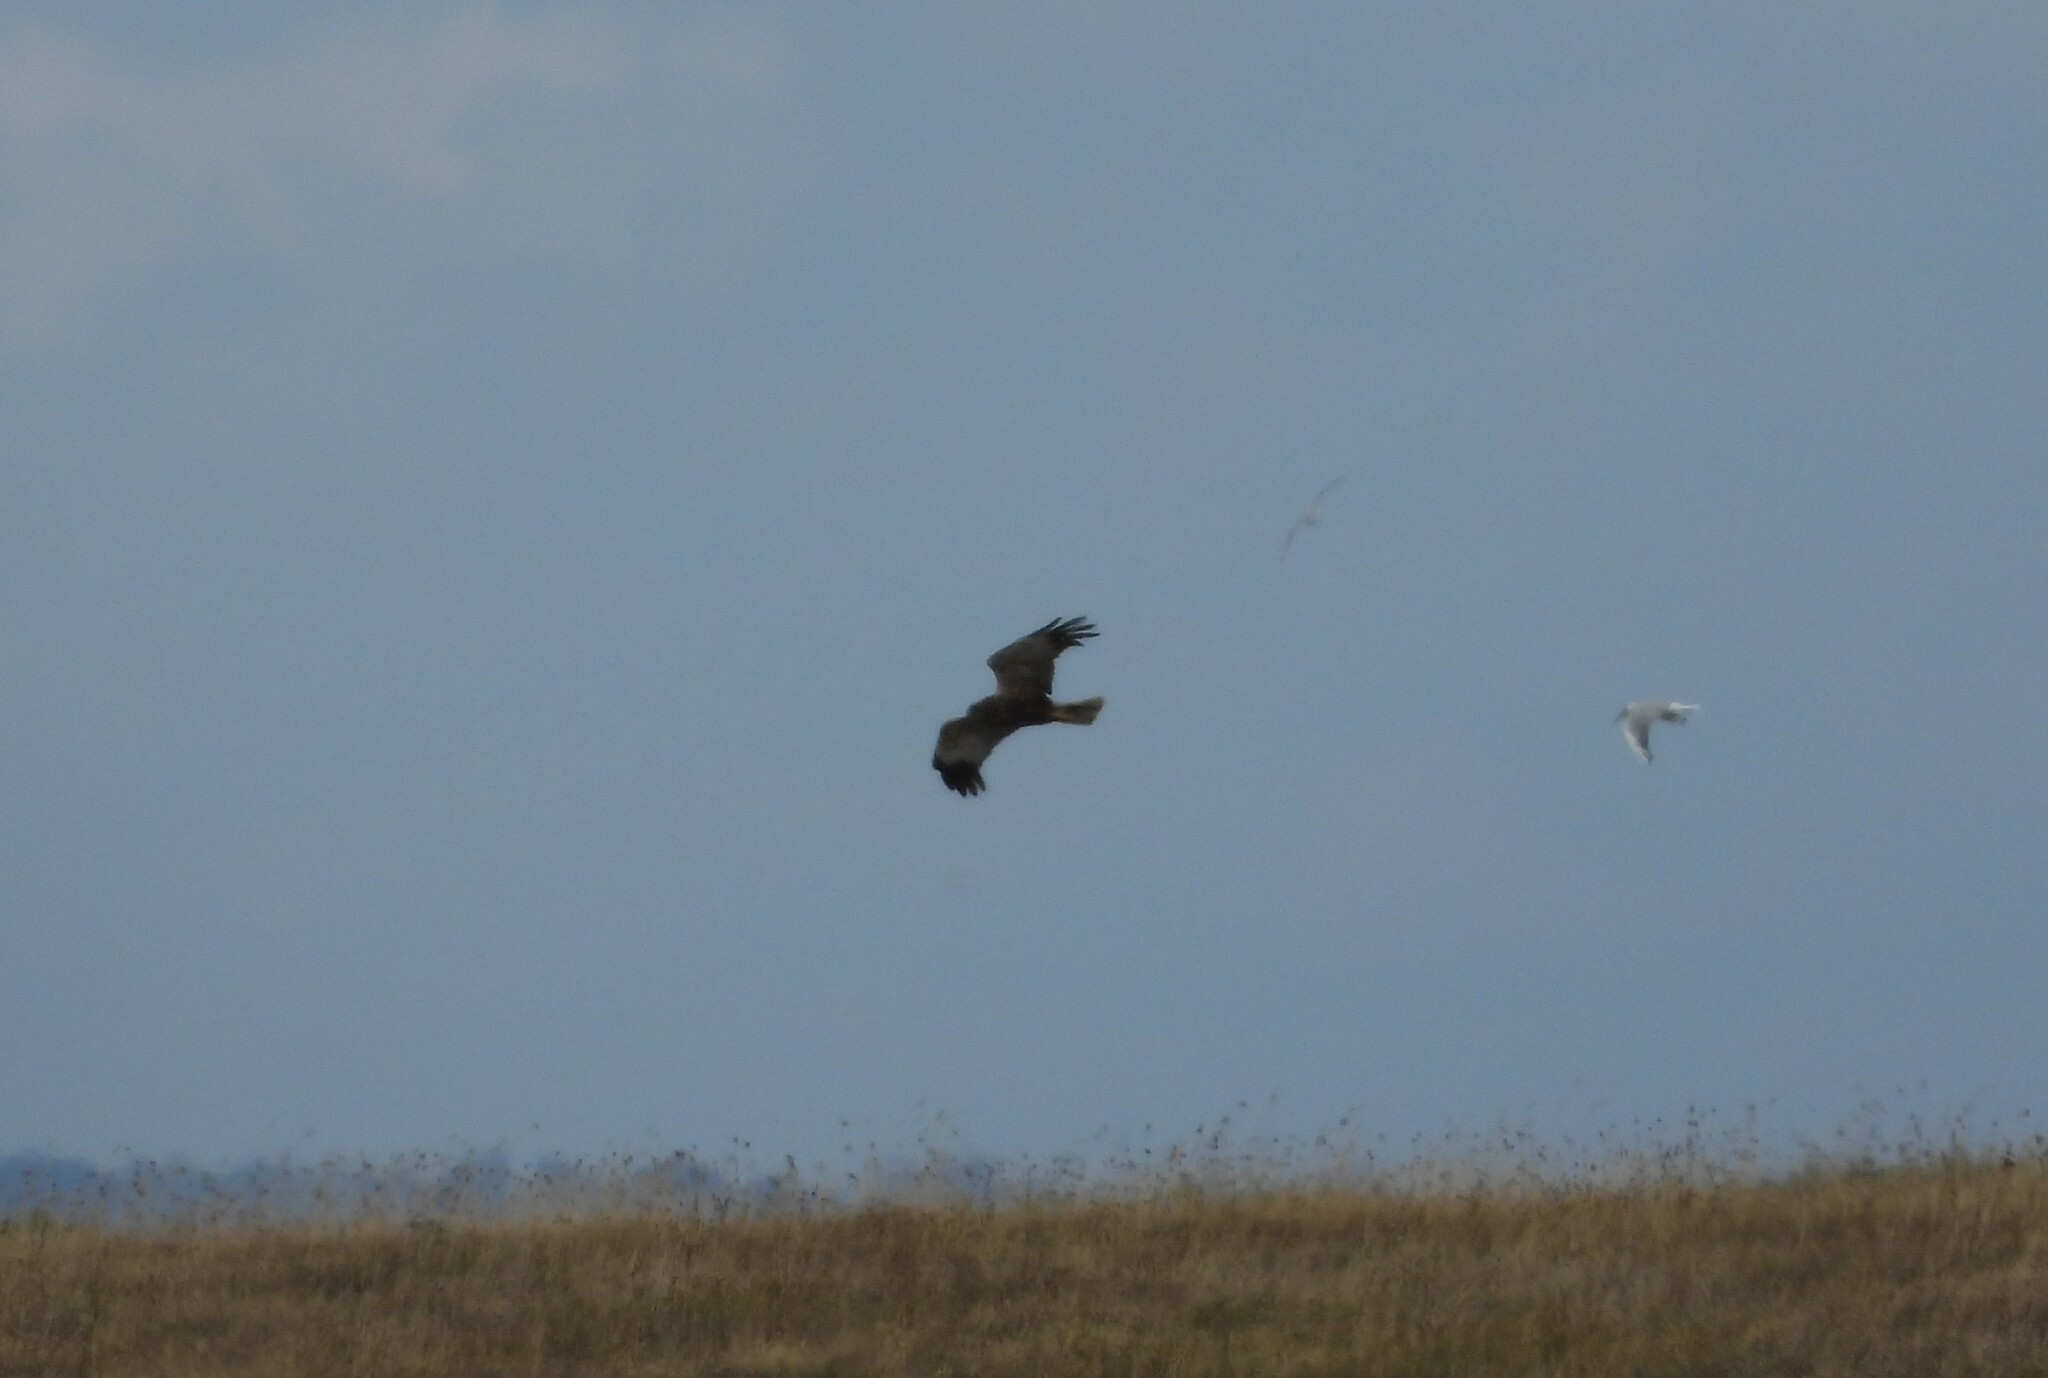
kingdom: Animalia
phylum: Chordata
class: Aves
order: Accipitriformes
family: Accipitridae
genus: Circus
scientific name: Circus aeruginosus
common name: Western marsh harrier
